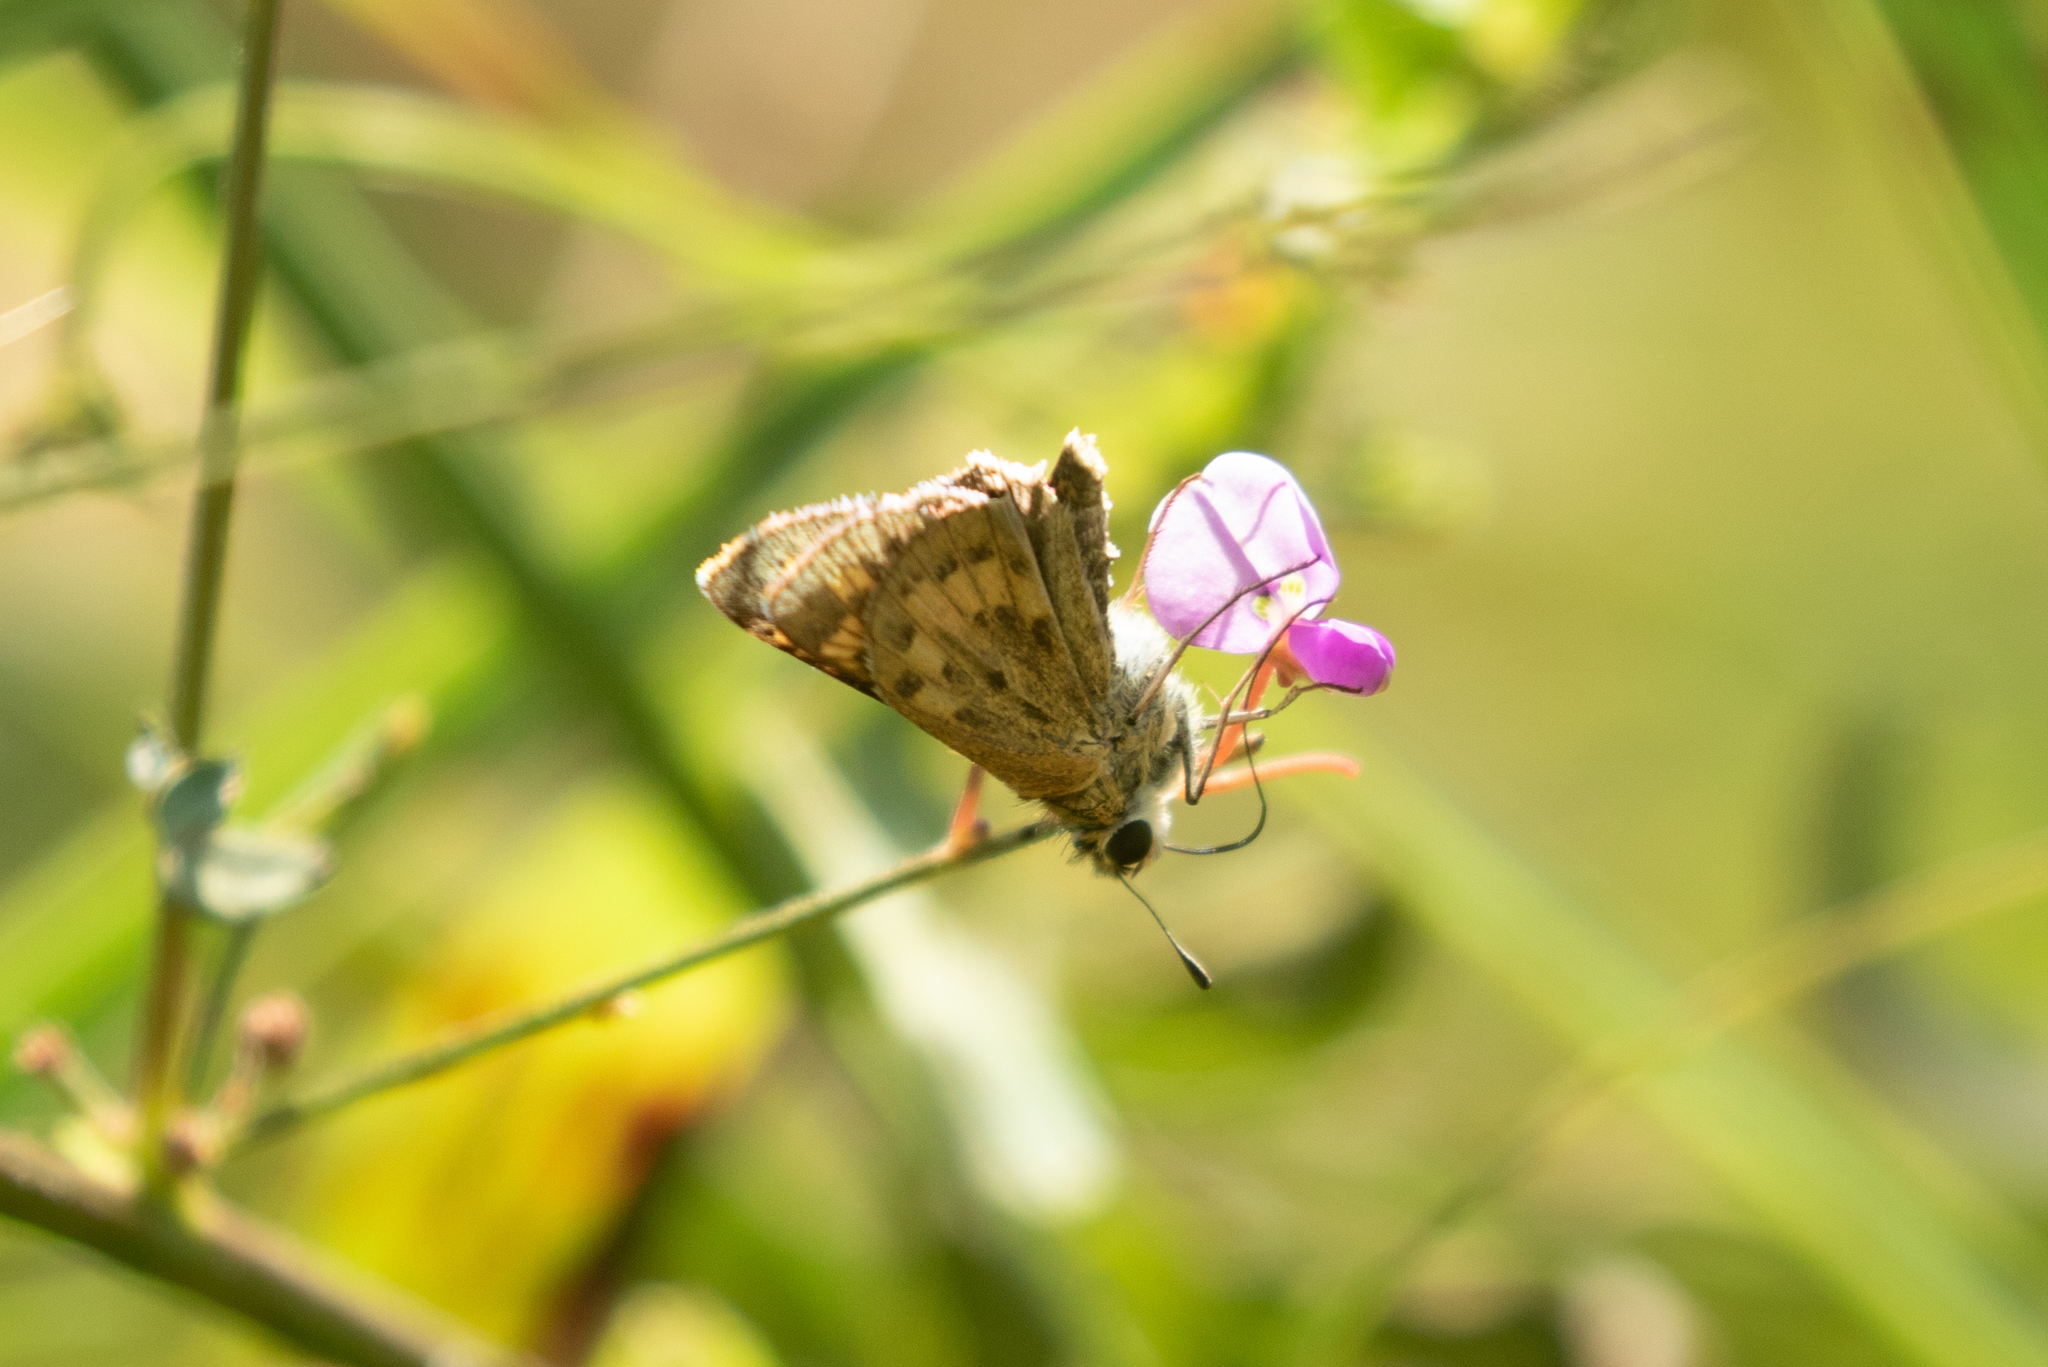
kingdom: Animalia
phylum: Arthropoda
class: Insecta
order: Lepidoptera
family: Hesperiidae
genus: Hylephila
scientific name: Hylephila phyleus
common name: Fiery skipper
